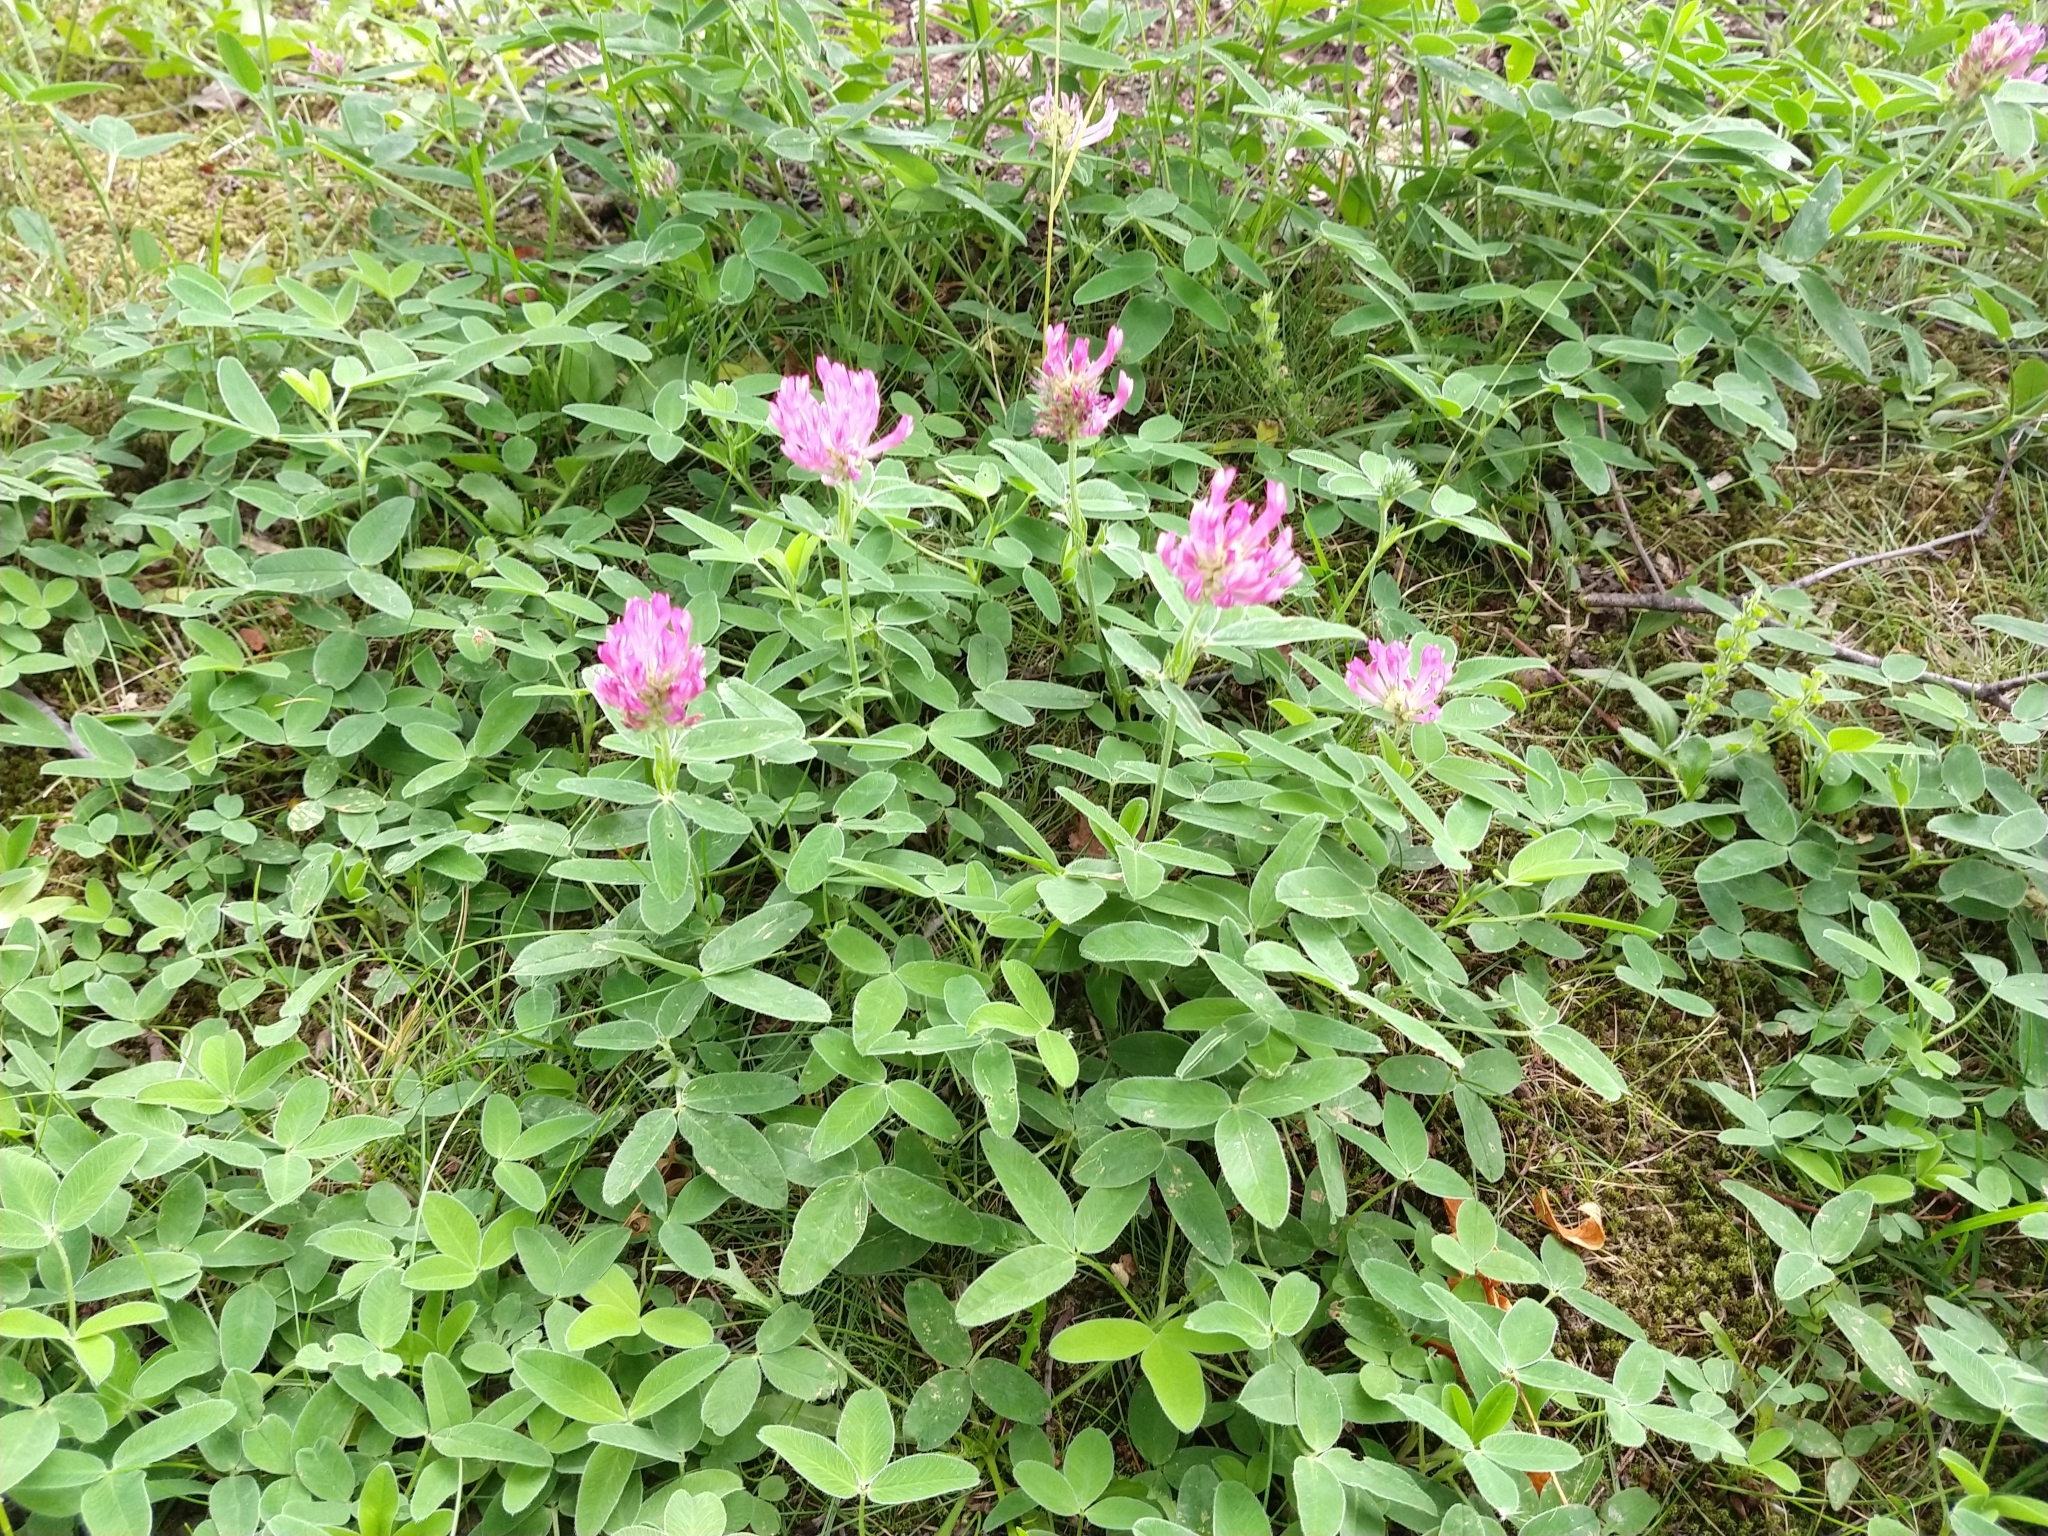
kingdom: Plantae
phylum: Tracheophyta
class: Magnoliopsida
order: Fabales
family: Fabaceae
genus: Trifolium
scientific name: Trifolium medium
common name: Zigzag clover
